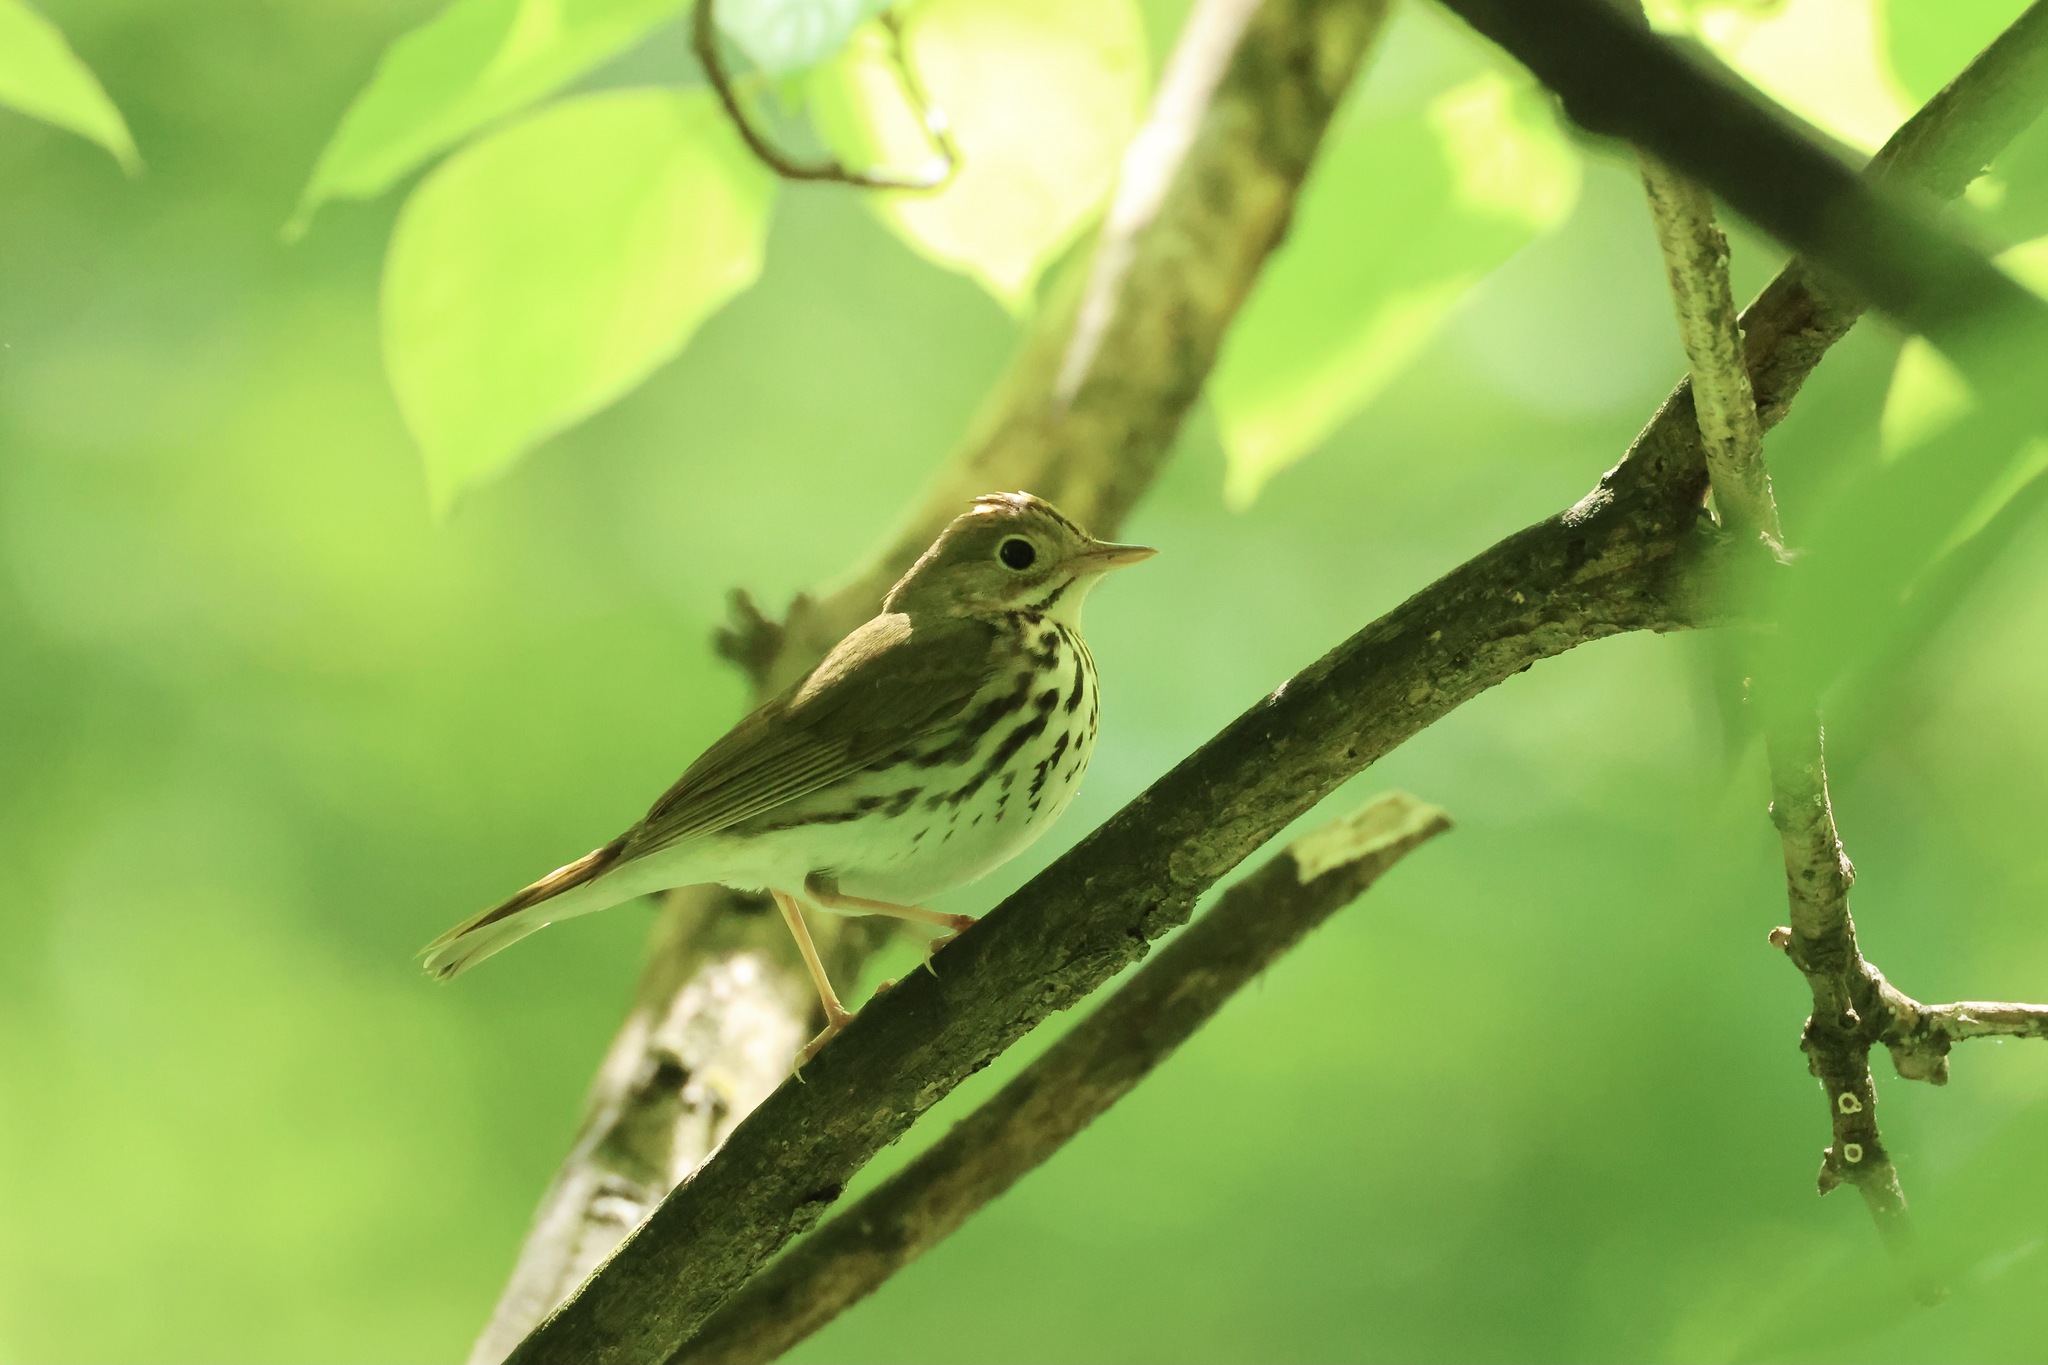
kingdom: Animalia
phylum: Chordata
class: Aves
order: Passeriformes
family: Parulidae
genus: Seiurus
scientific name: Seiurus aurocapilla
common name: Ovenbird
